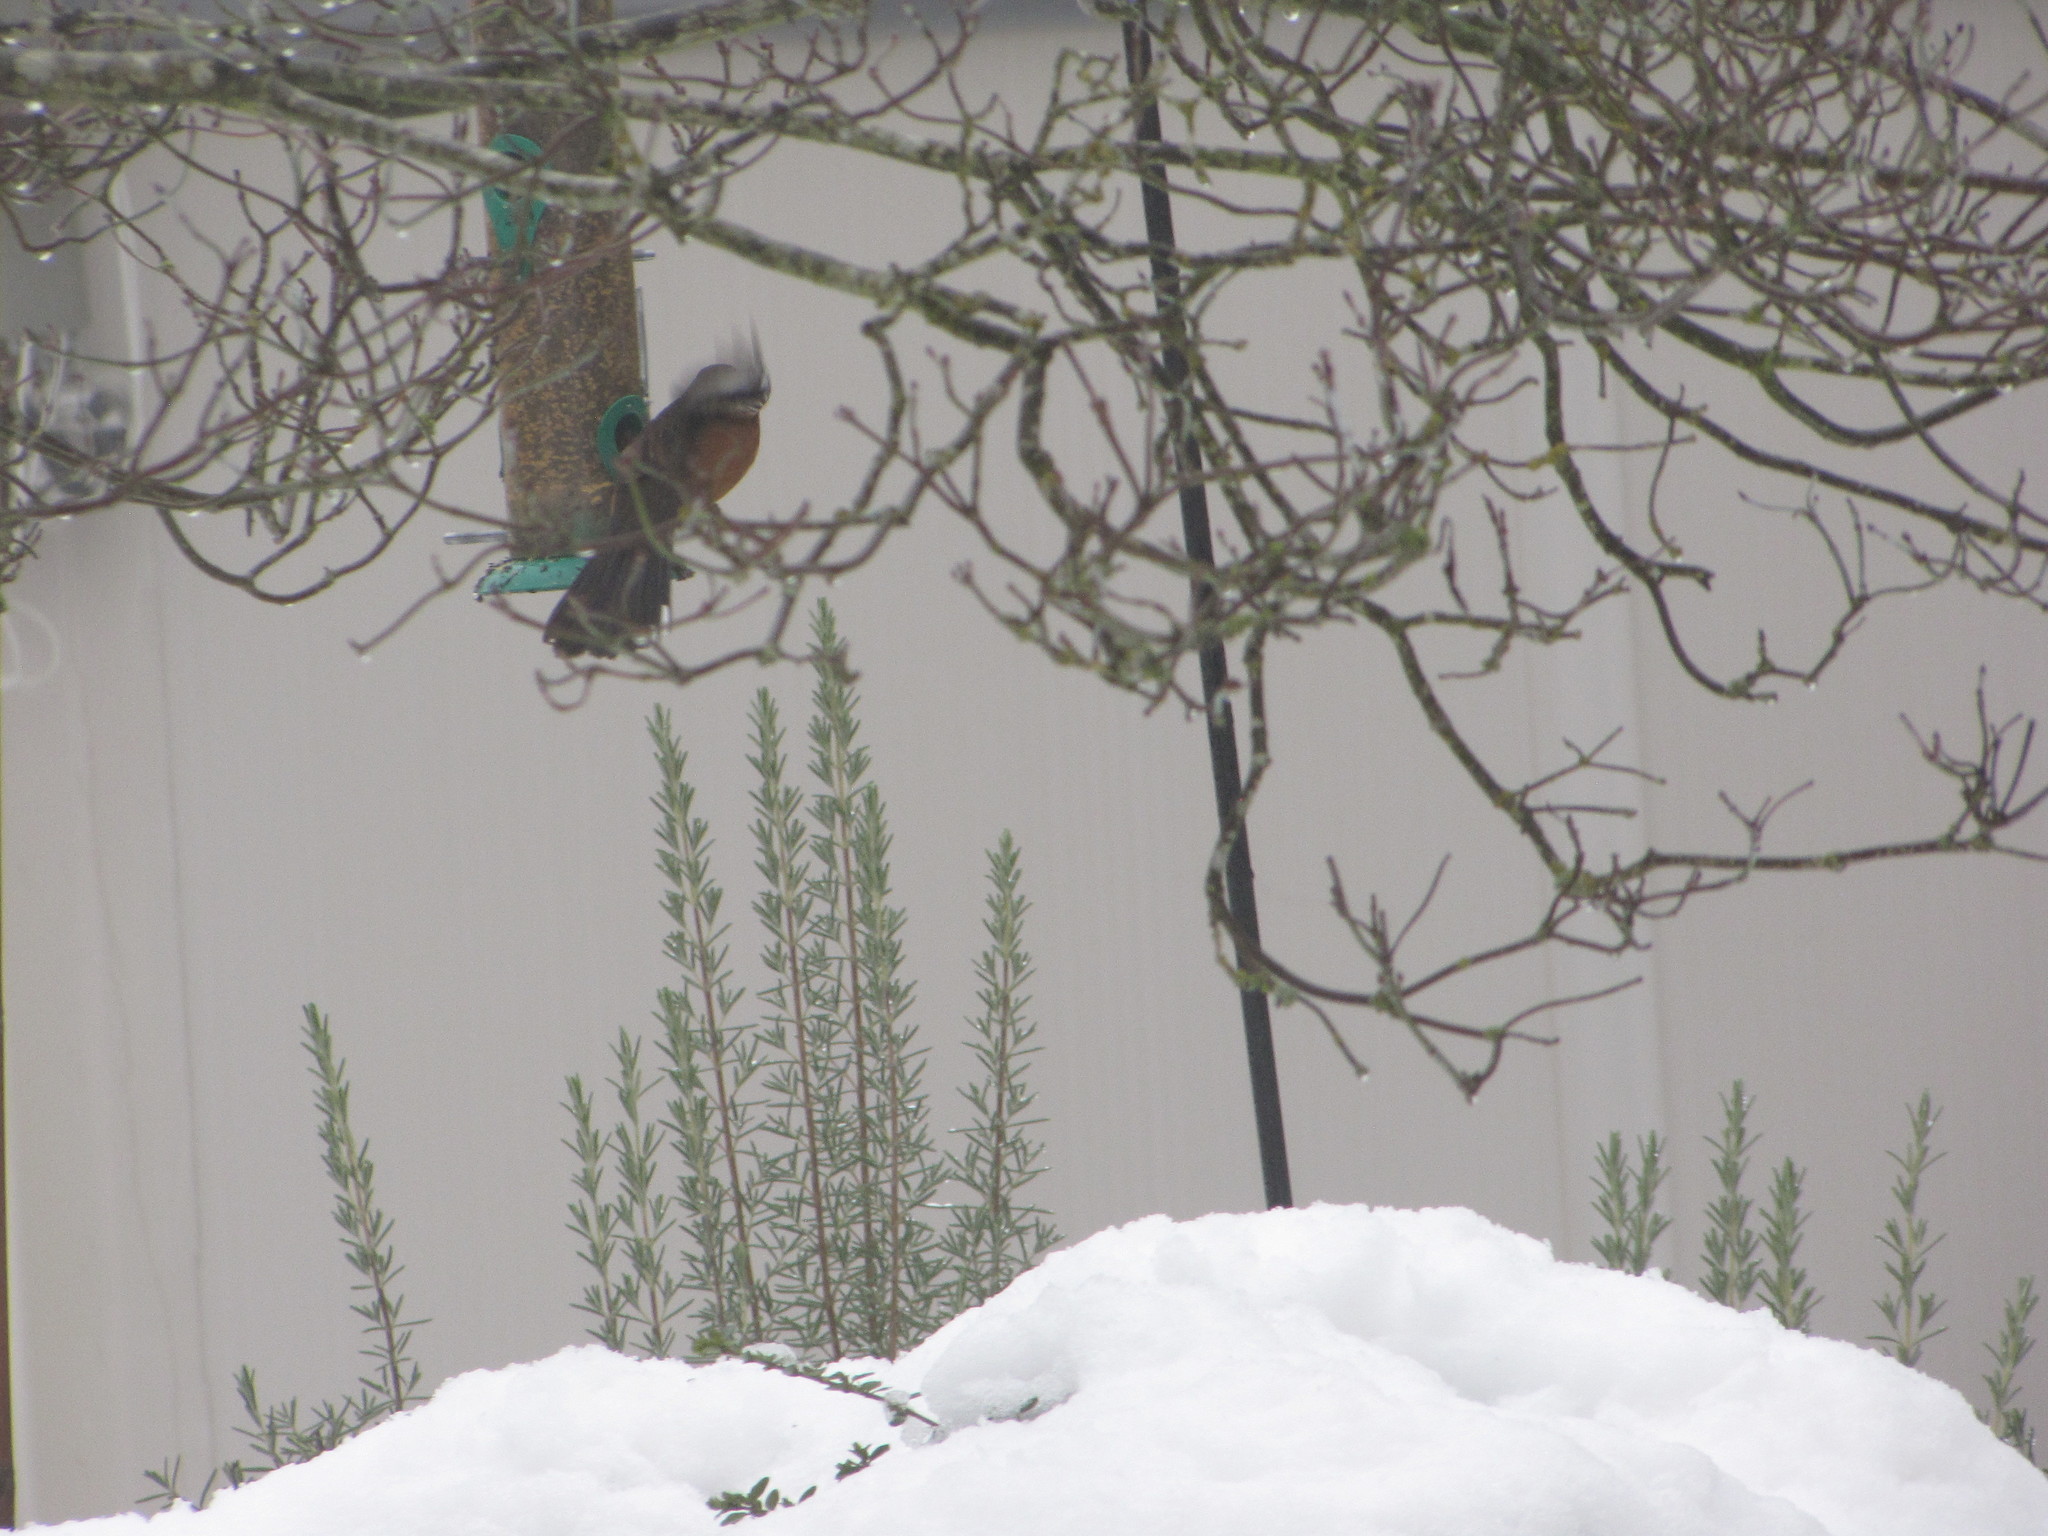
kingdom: Animalia
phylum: Chordata
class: Aves
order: Passeriformes
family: Passerellidae
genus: Pipilo
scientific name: Pipilo maculatus
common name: Spotted towhee
